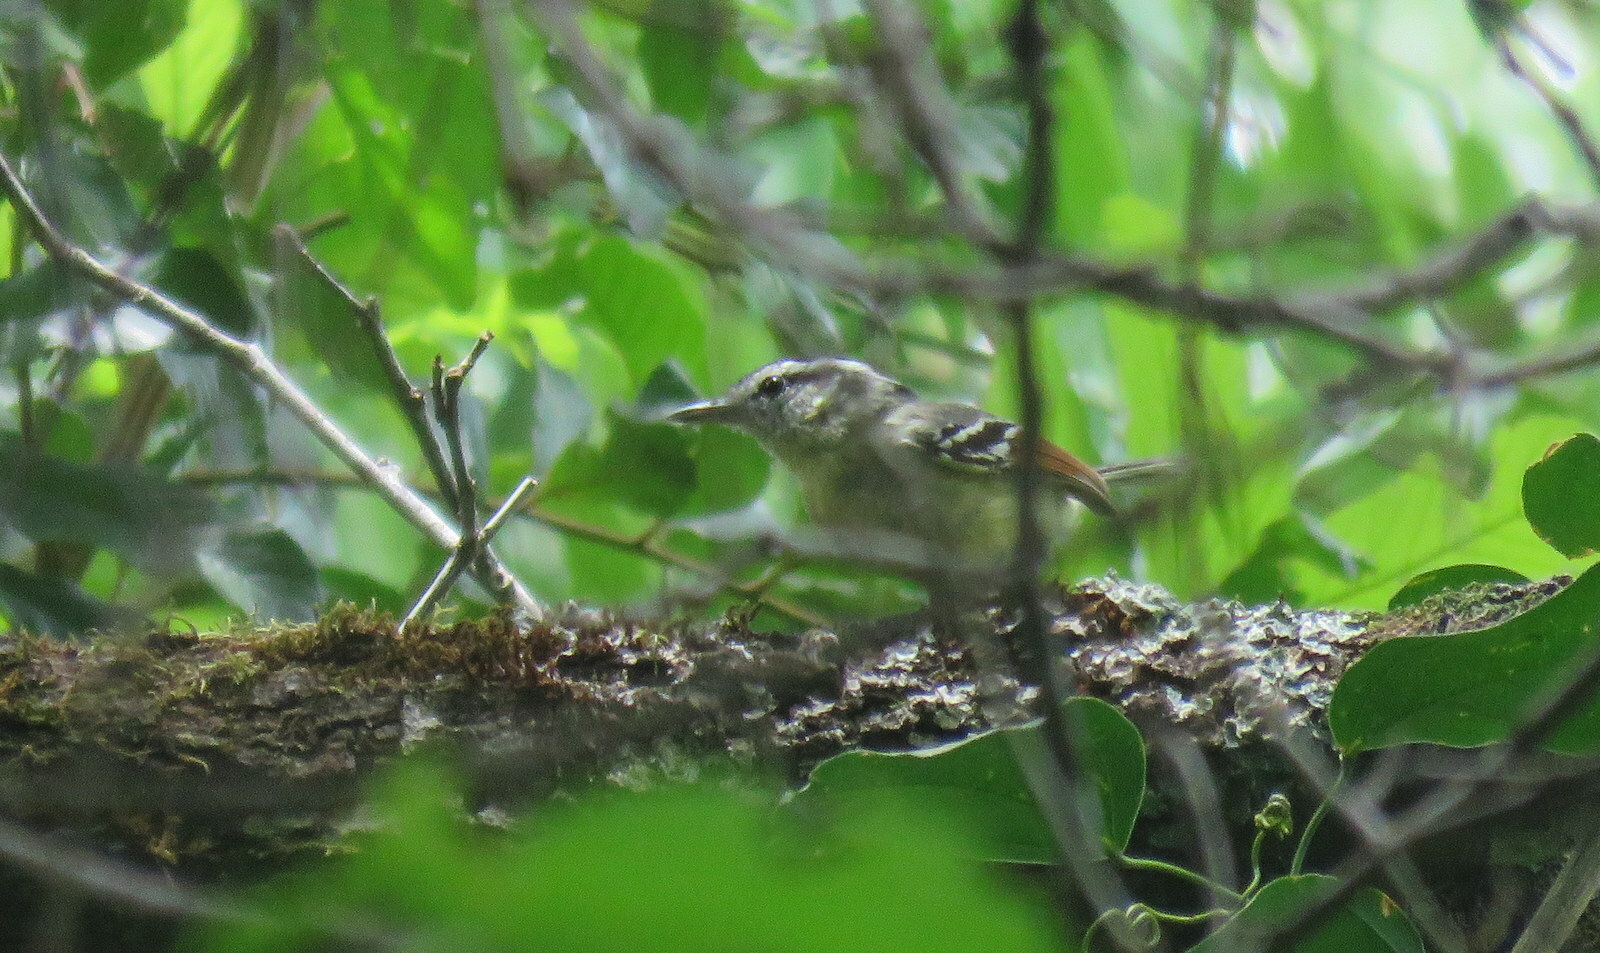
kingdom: Animalia
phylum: Chordata
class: Aves
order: Passeriformes
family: Thamnophilidae
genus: Herpsilochmus
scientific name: Herpsilochmus rufimarginatus
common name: Rufous-winged antwren
